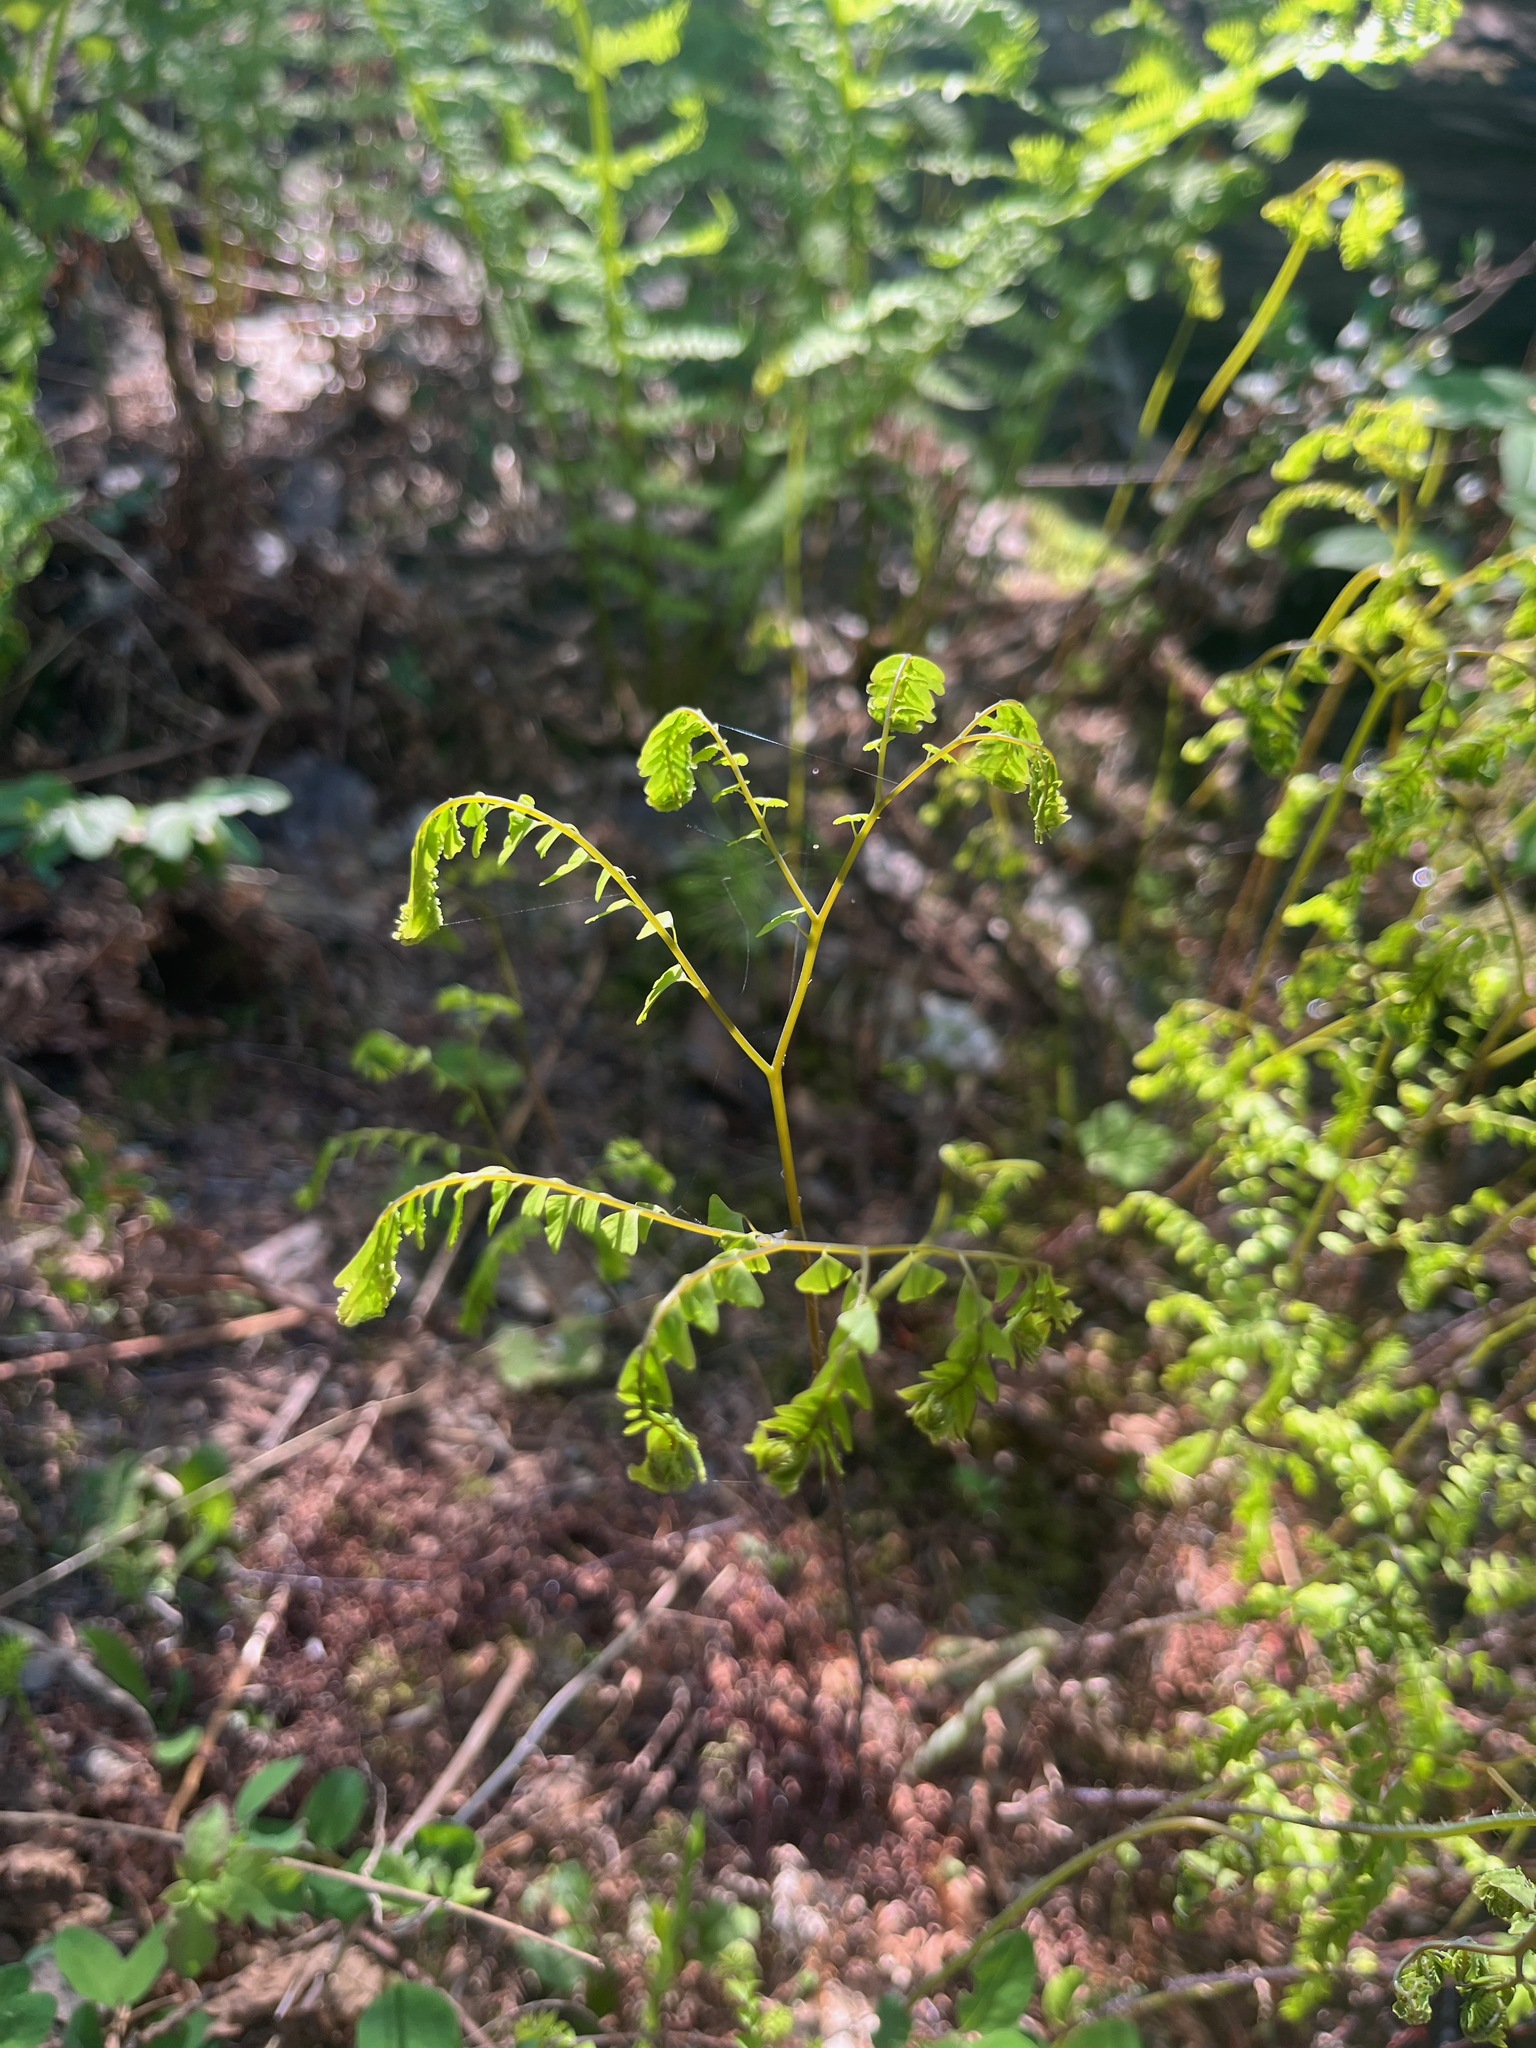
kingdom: Plantae
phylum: Tracheophyta
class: Polypodiopsida
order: Polypodiales
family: Pteridaceae
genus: Adiantum
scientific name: Adiantum aleuticum
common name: Aleutian maidenhair fern
